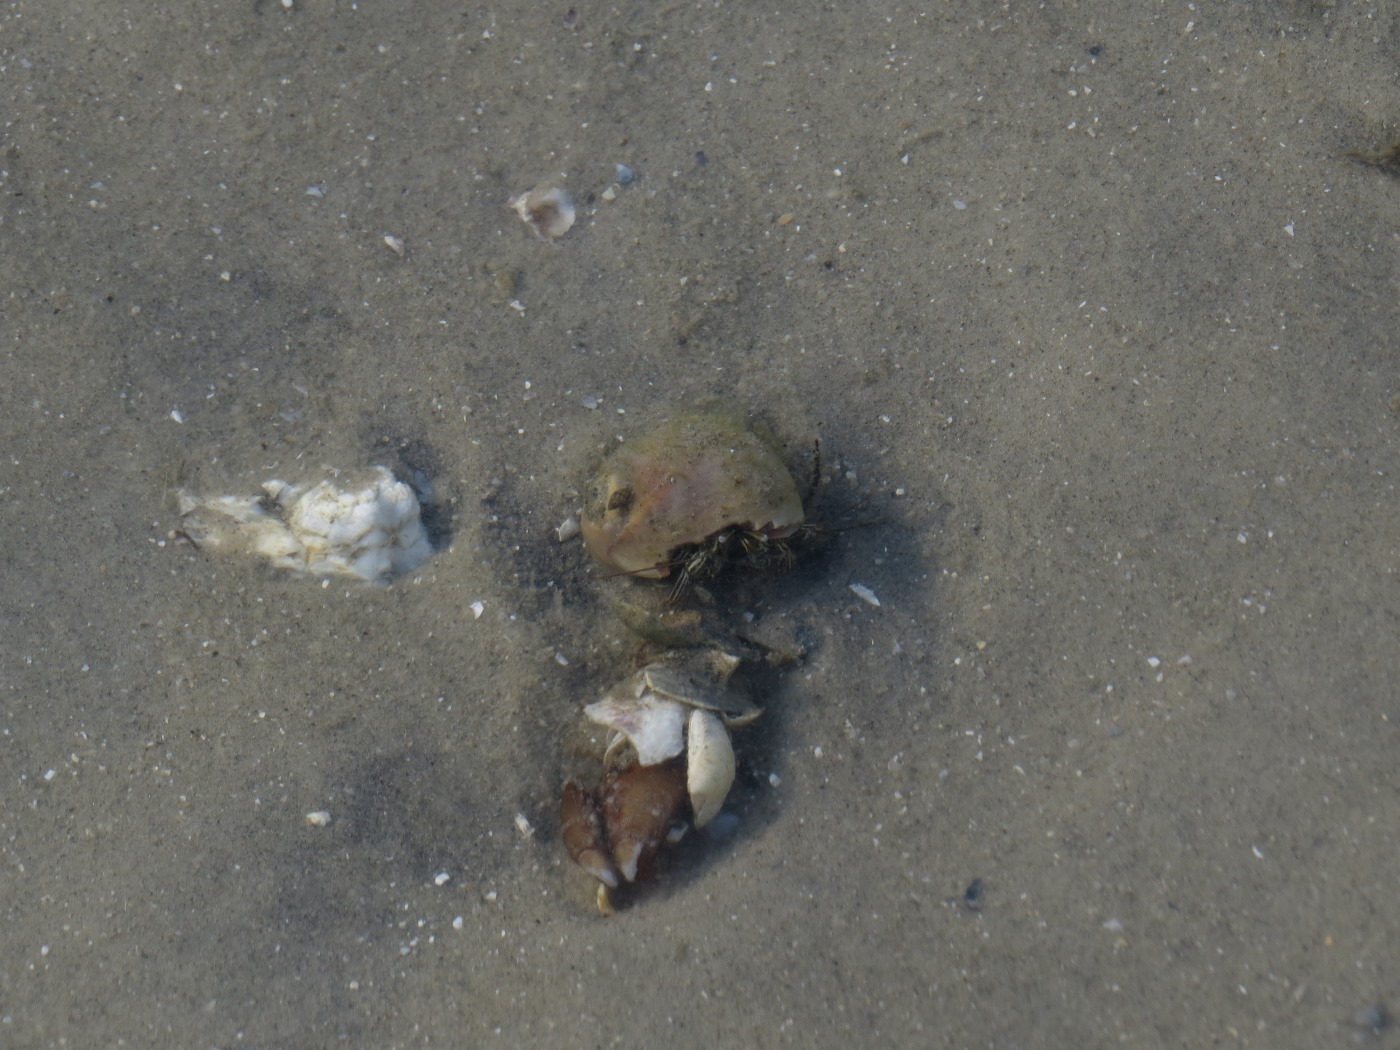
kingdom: Animalia
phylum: Arthropoda
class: Malacostraca
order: Decapoda
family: Diogenidae
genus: Clibanarius
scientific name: Clibanarius vittatus
